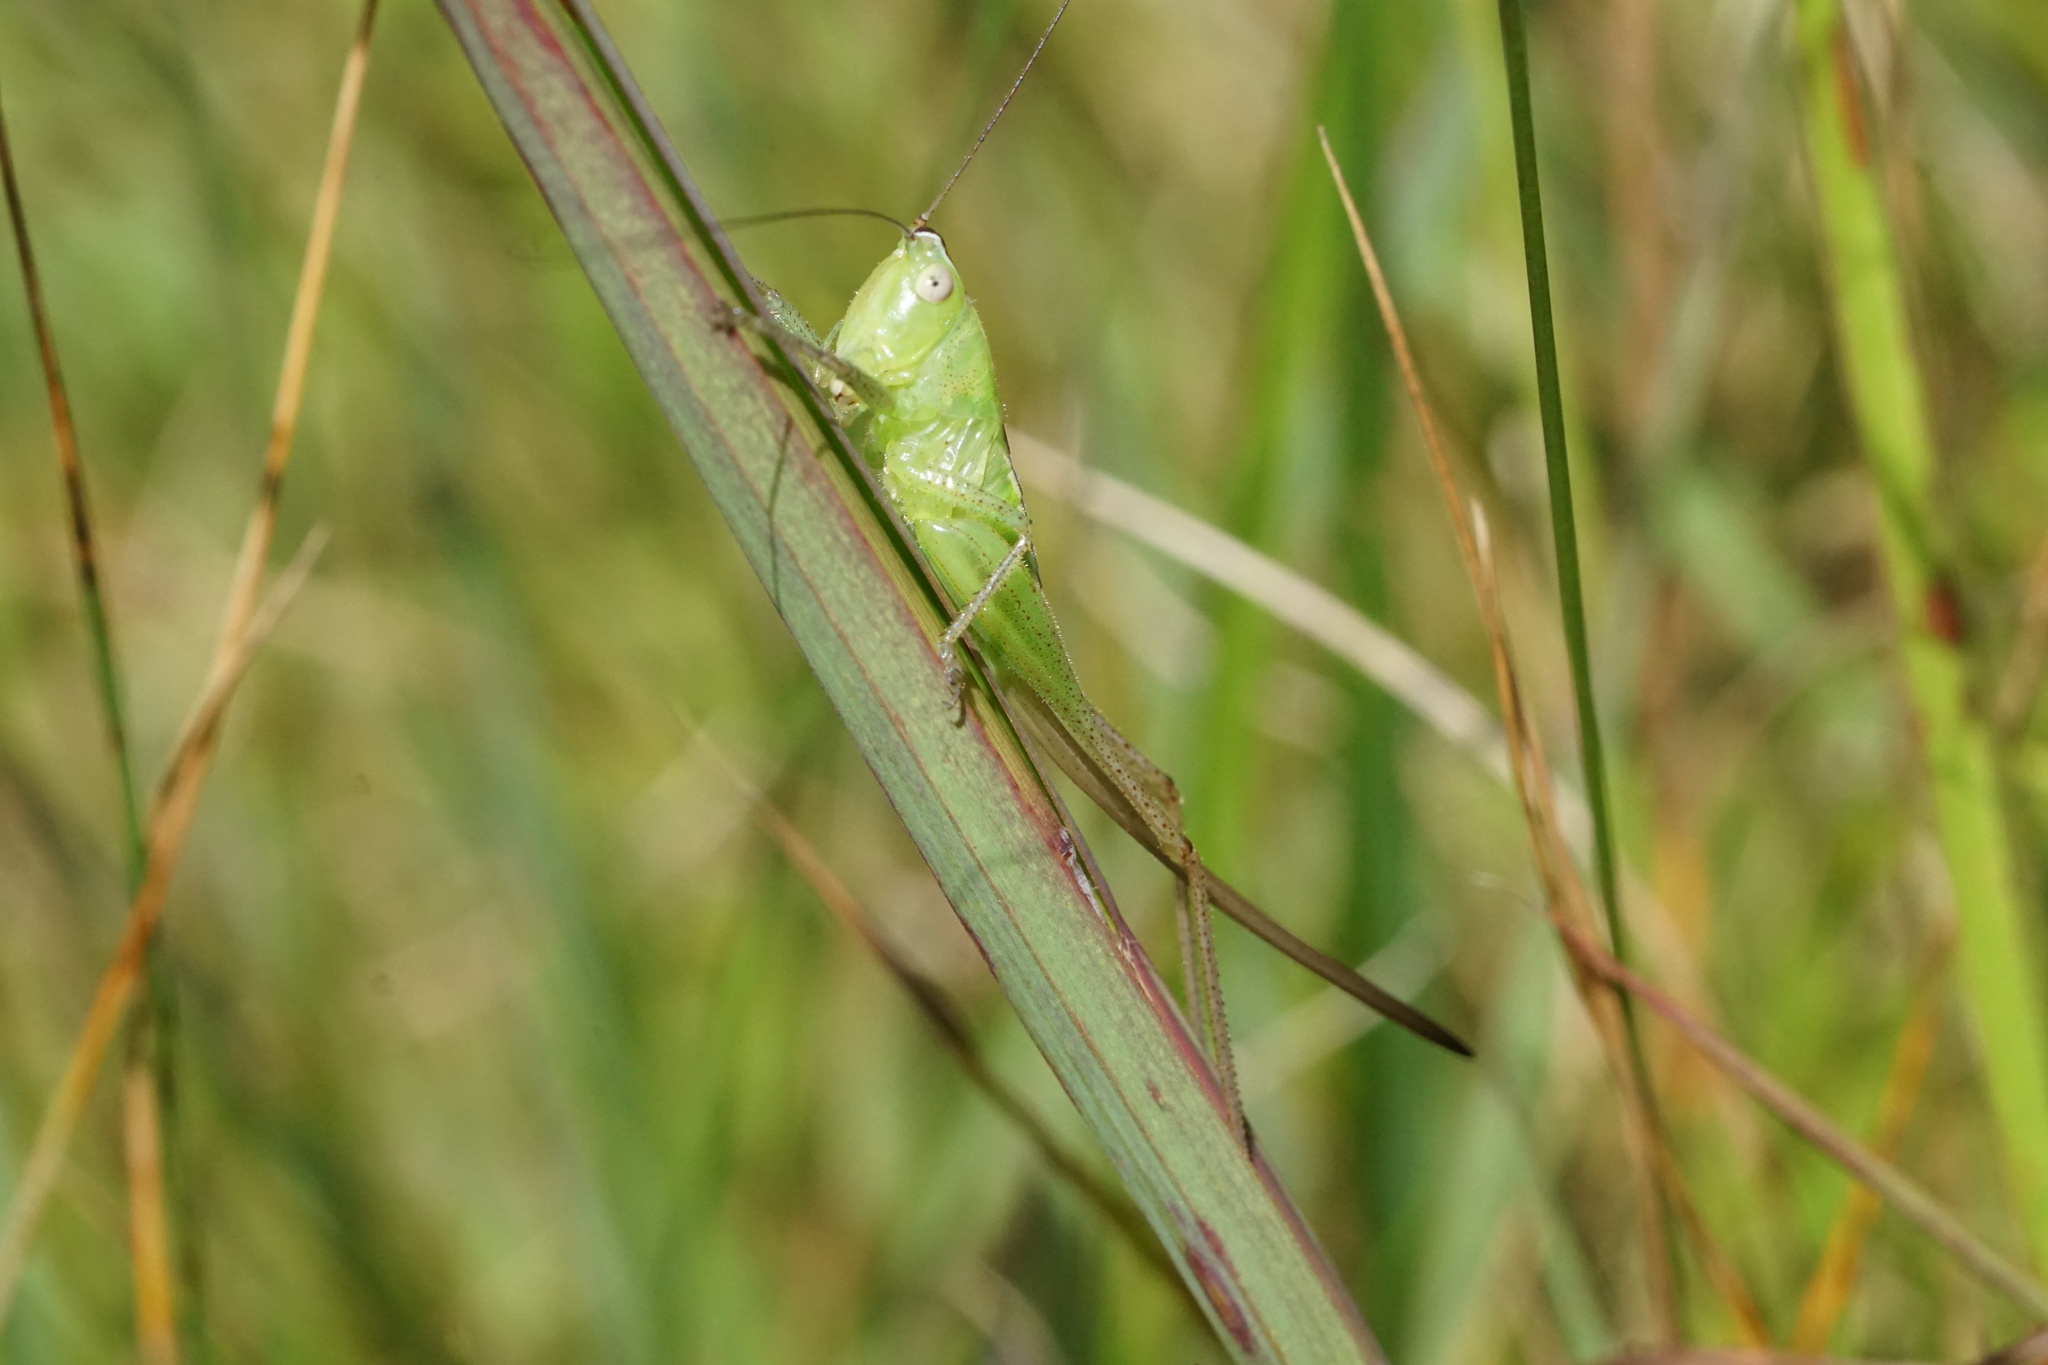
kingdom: Animalia
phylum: Arthropoda
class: Insecta
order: Orthoptera
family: Tettigoniidae
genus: Conocephalus
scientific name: Conocephalus strictus
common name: Straight-lanced katydid
